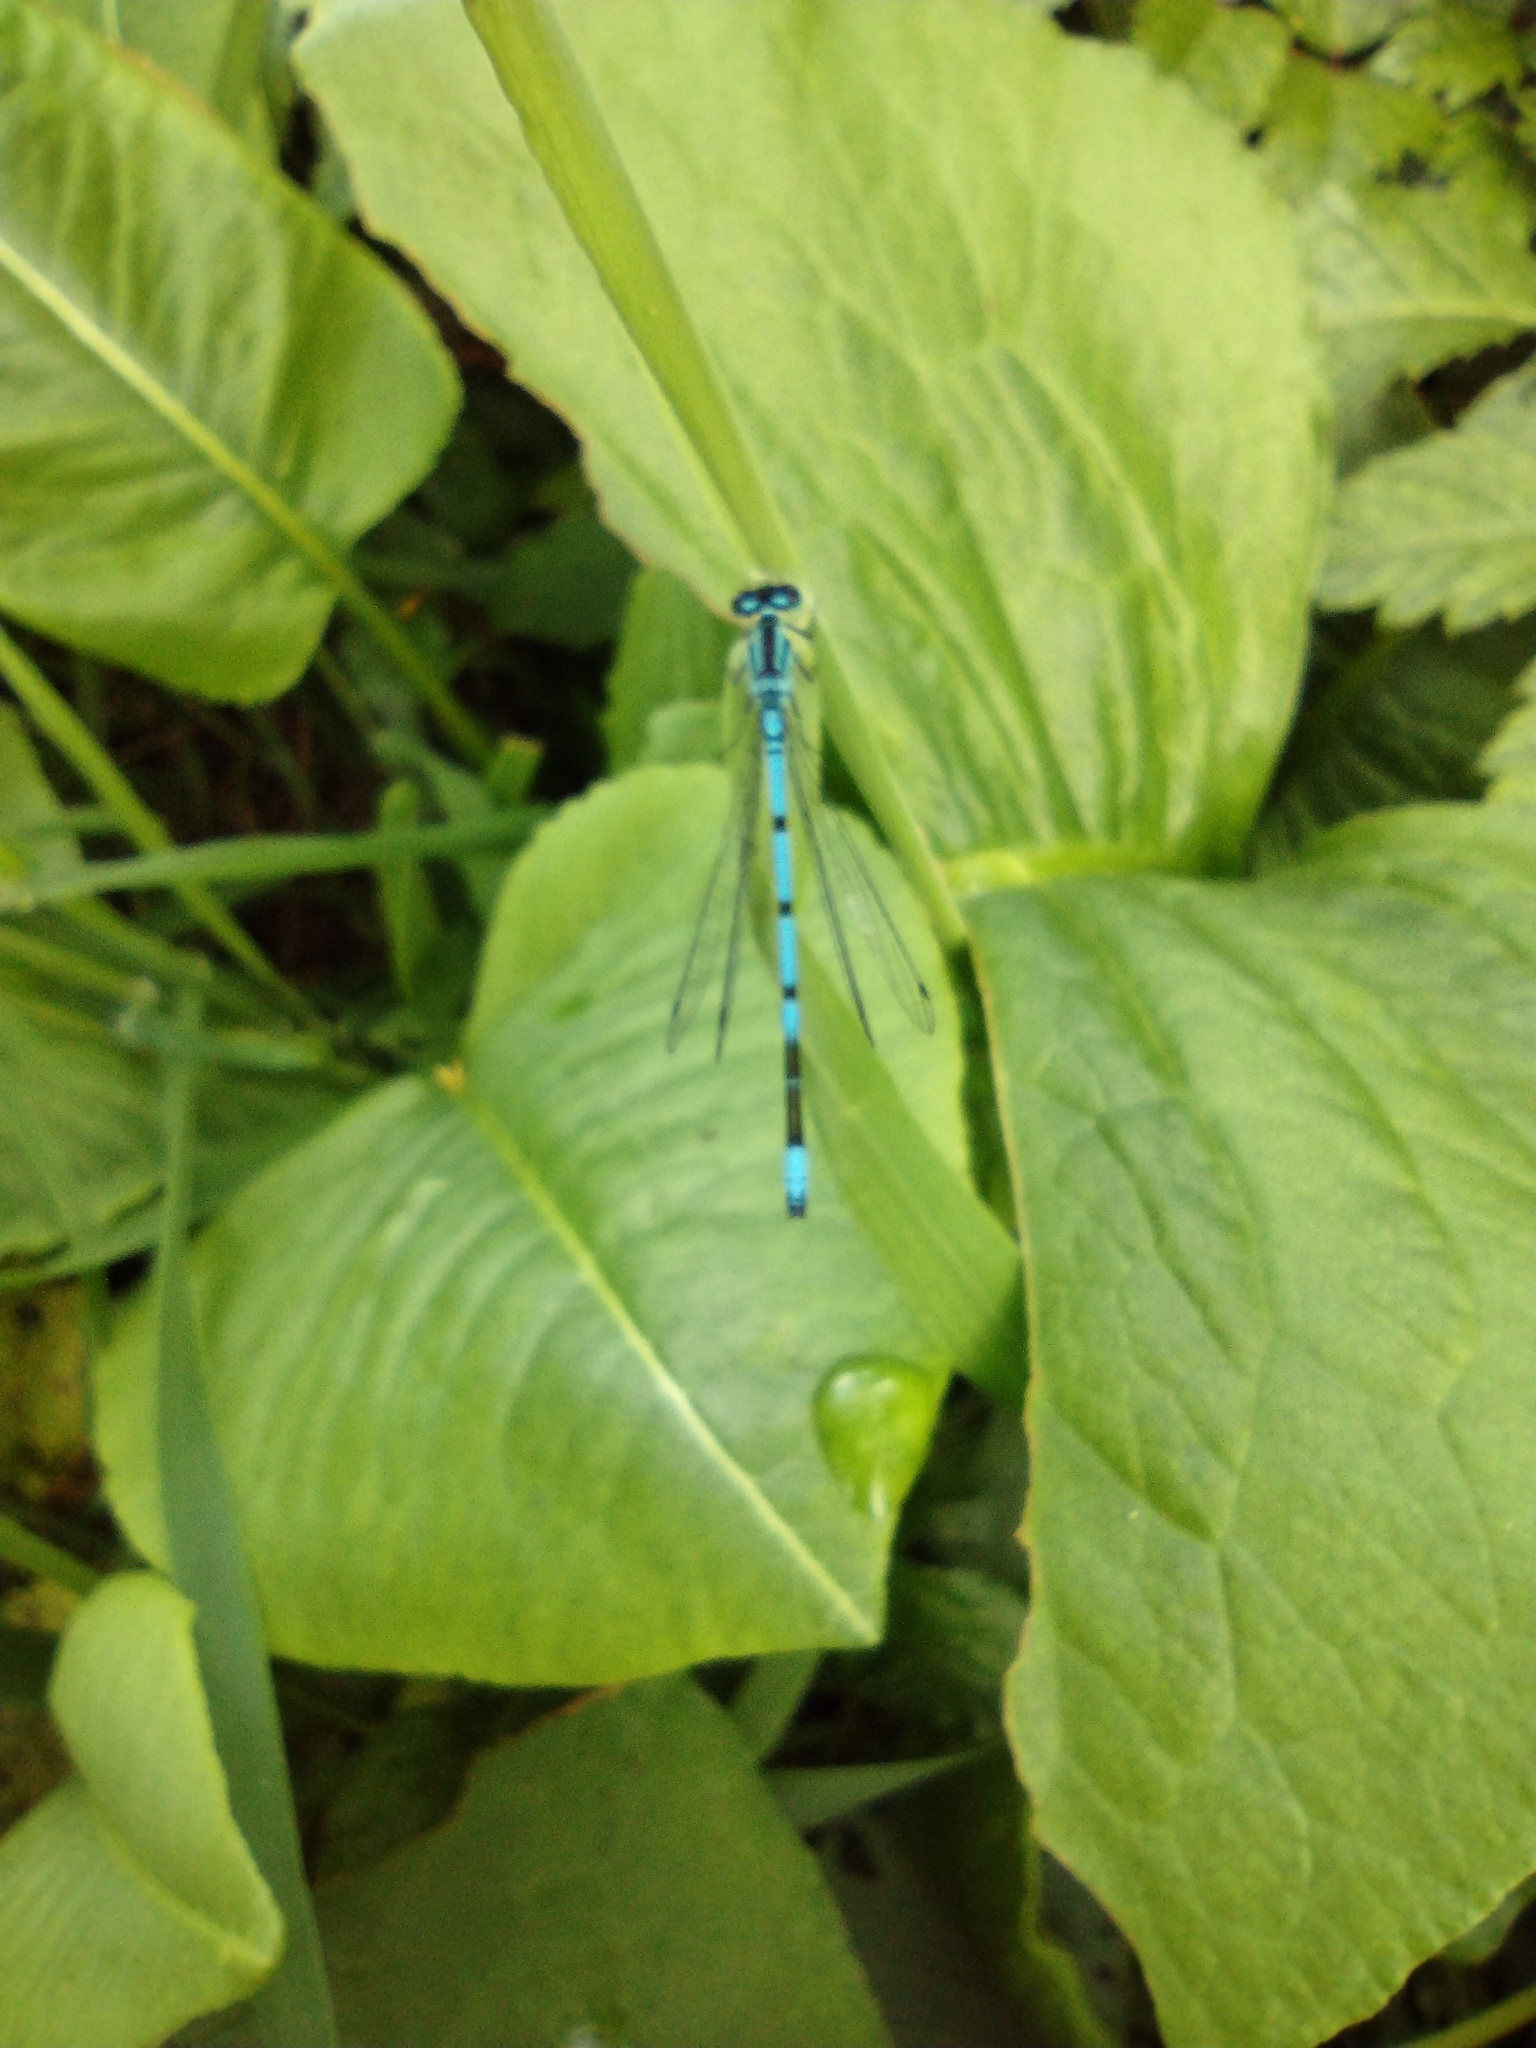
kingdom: Animalia
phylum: Arthropoda
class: Insecta
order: Odonata
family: Coenagrionidae
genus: Coenagrion
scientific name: Coenagrion puella
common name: Azure damselfly
